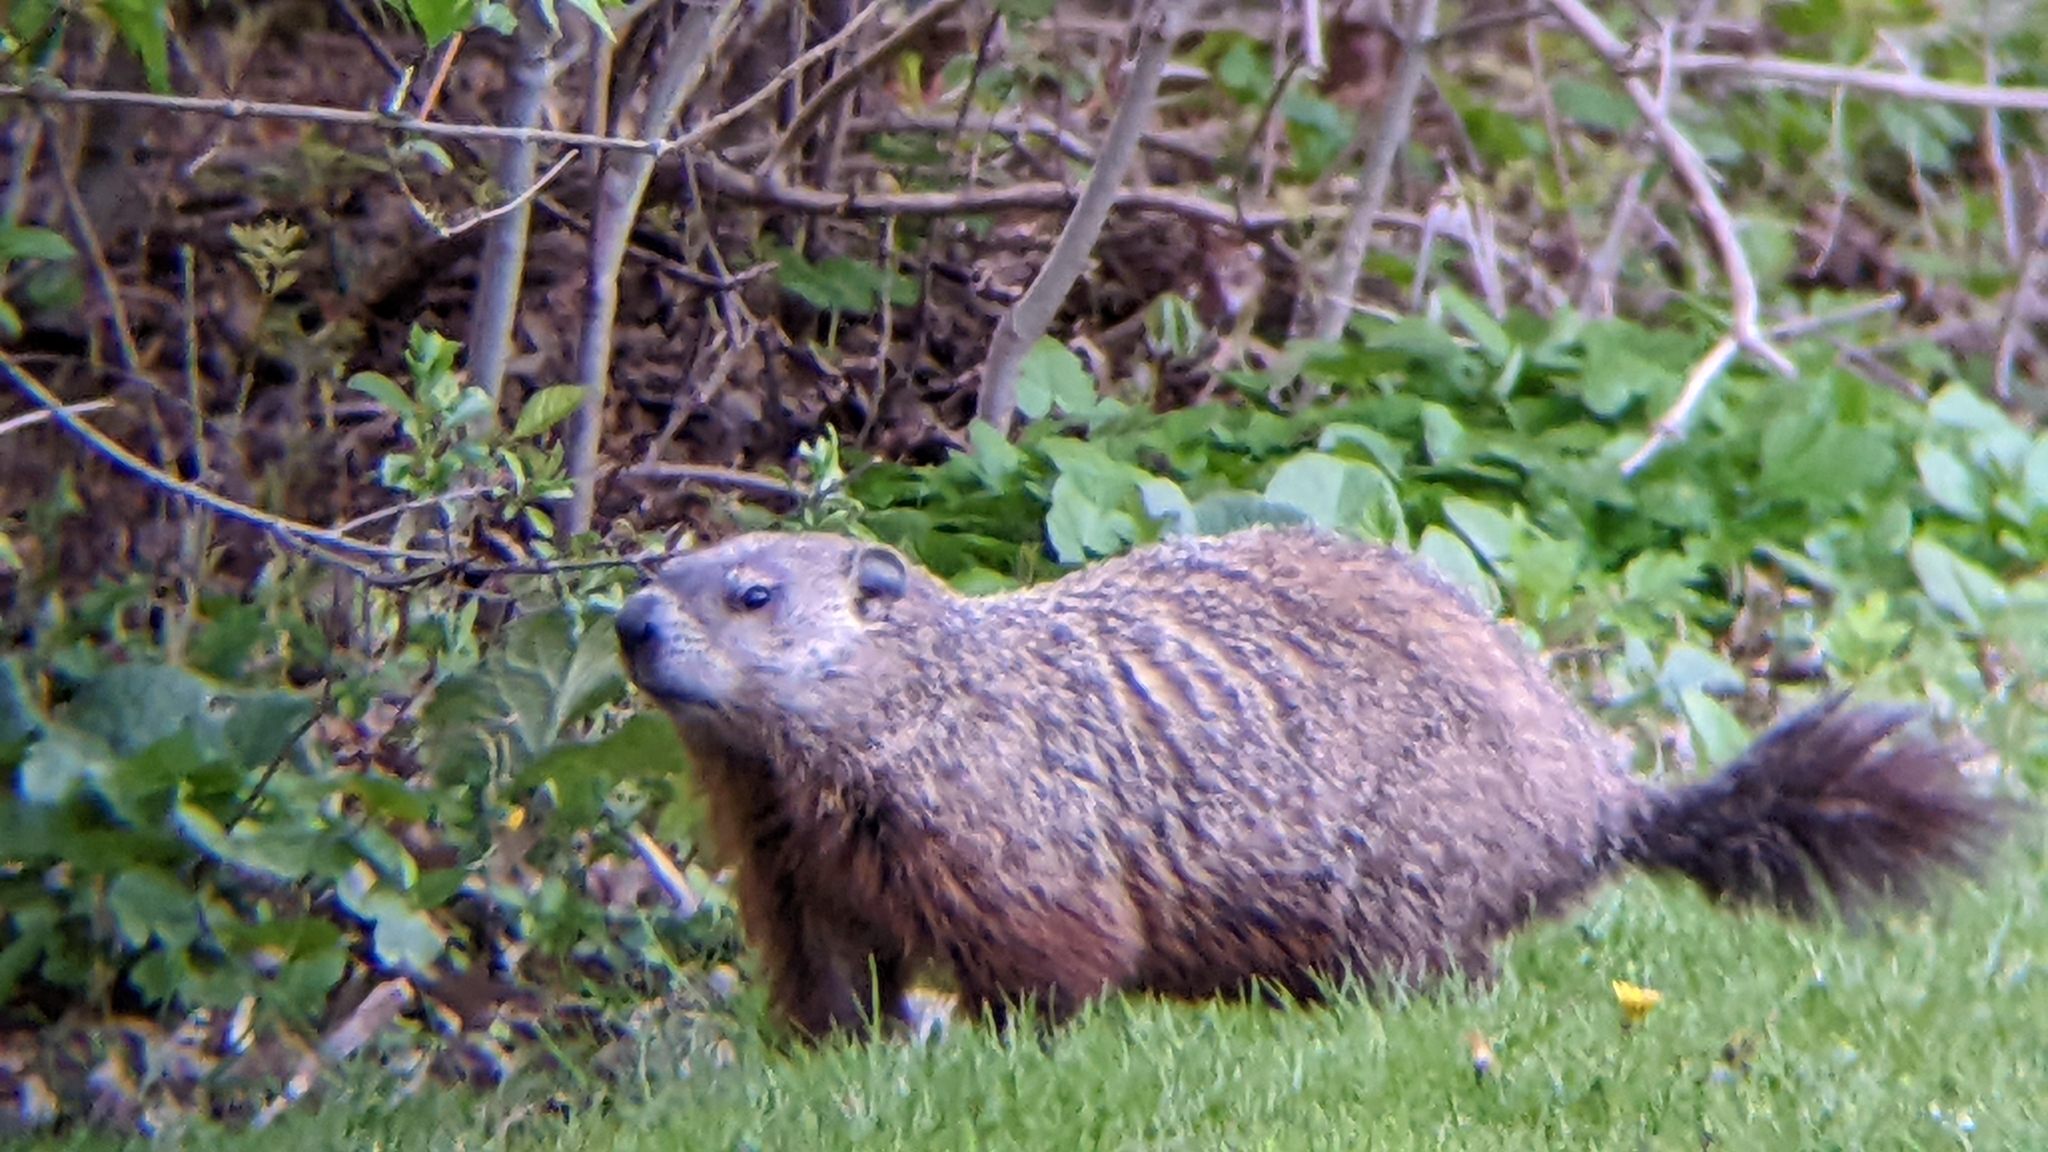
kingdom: Animalia
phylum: Chordata
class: Mammalia
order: Rodentia
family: Sciuridae
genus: Marmota
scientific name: Marmota monax
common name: Groundhog
